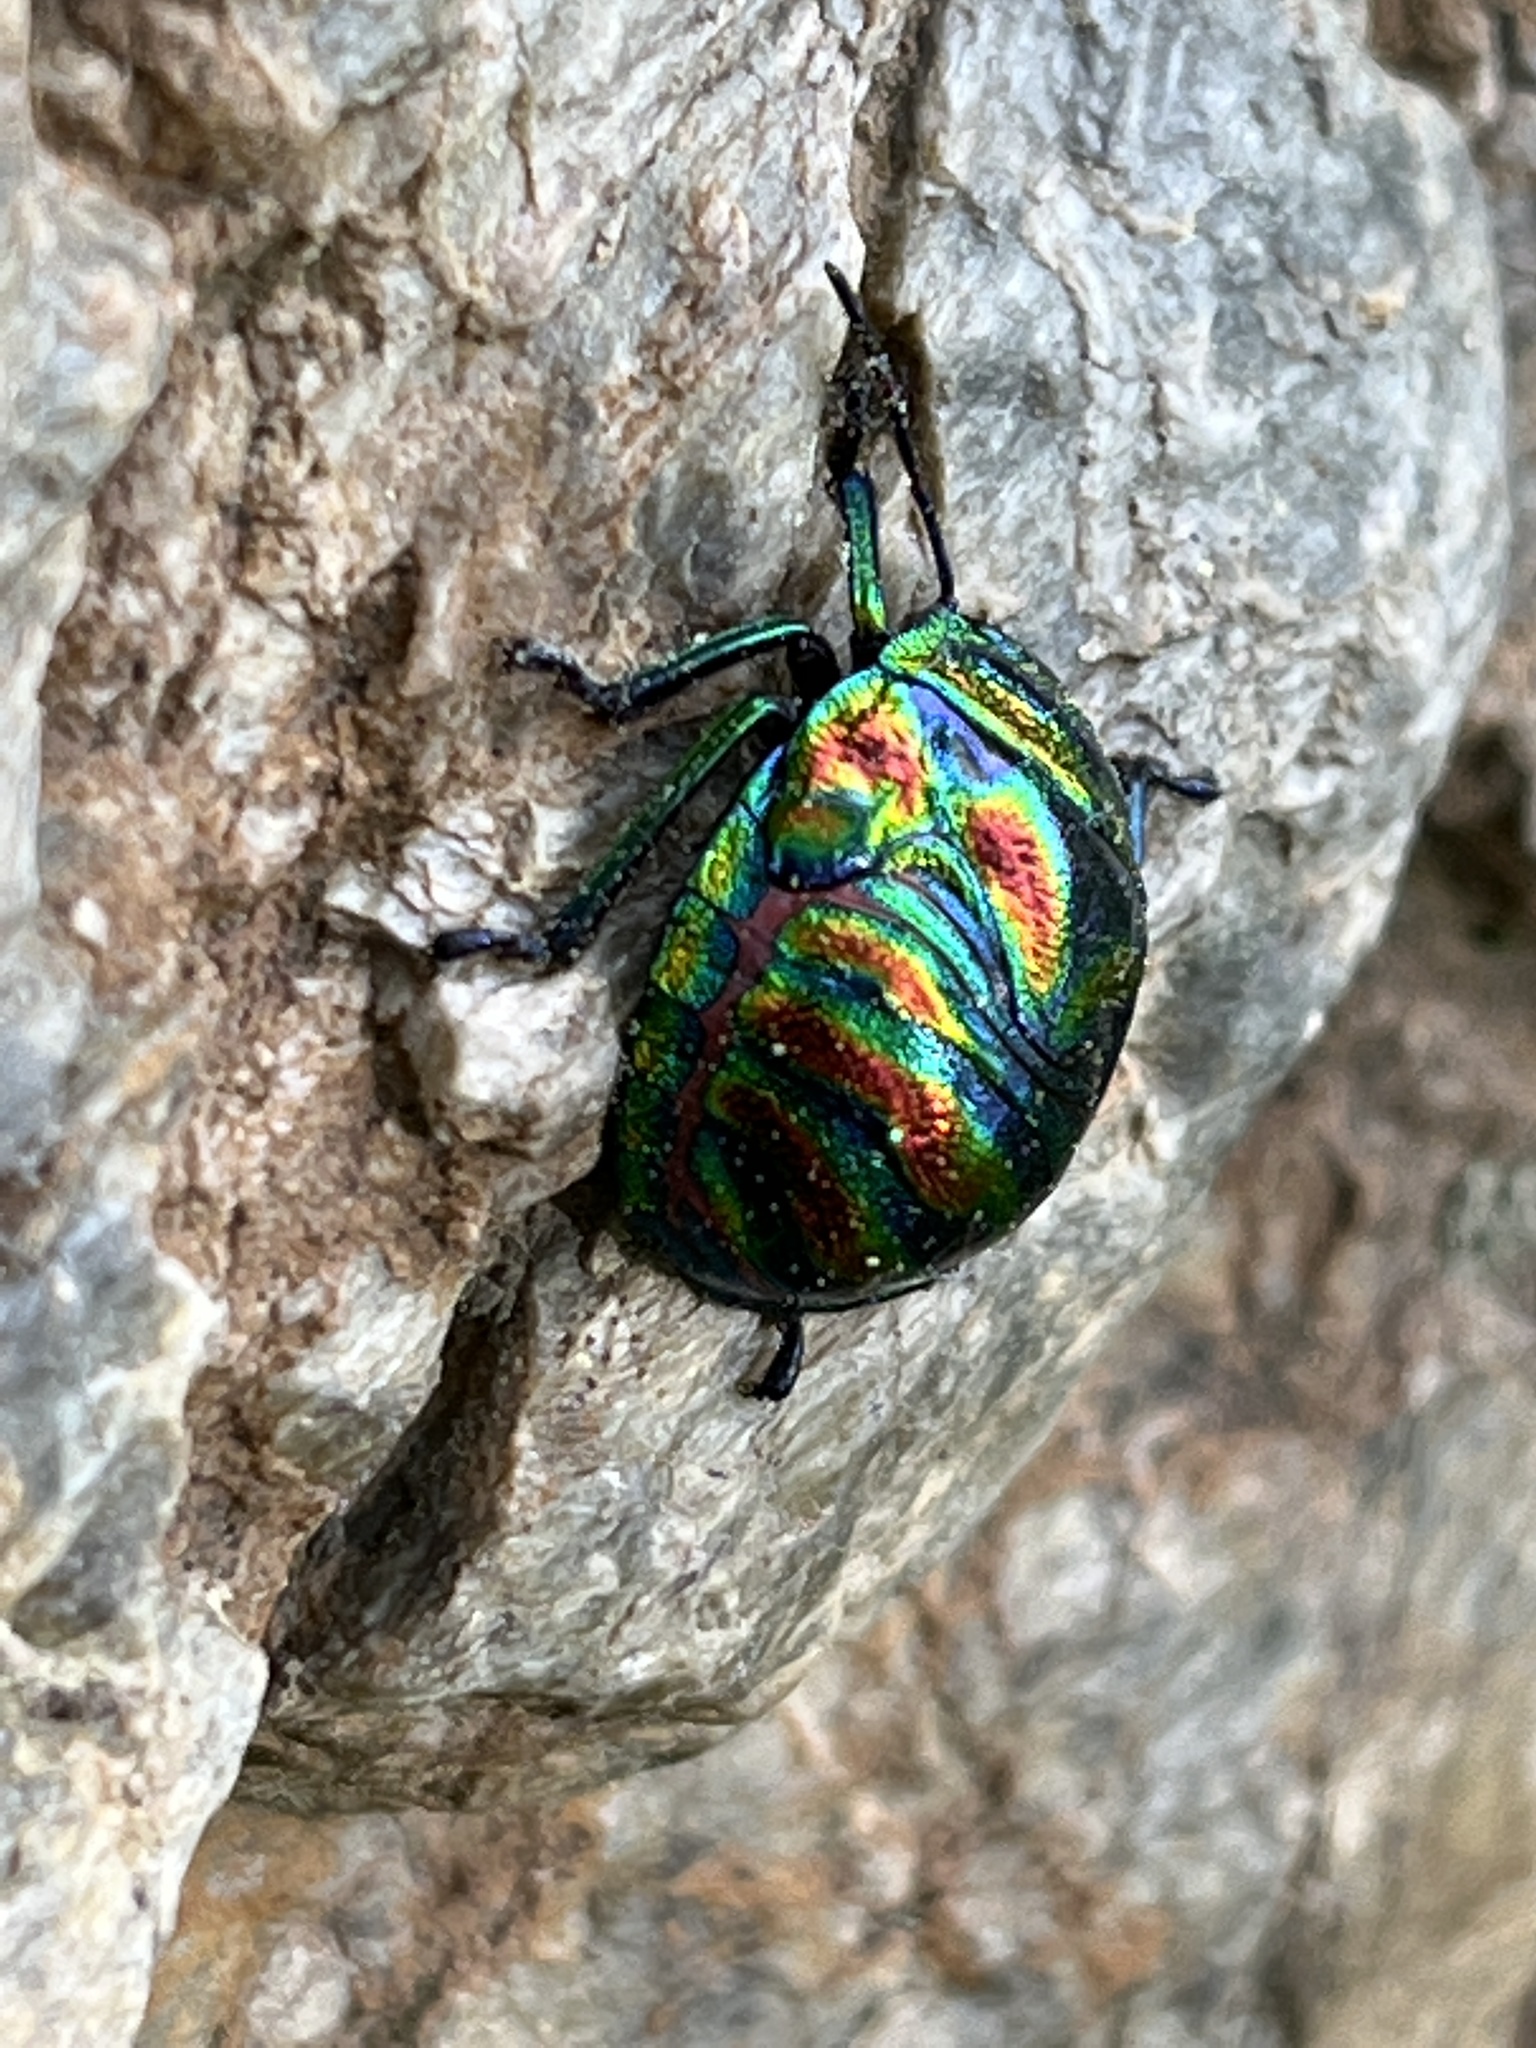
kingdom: Animalia
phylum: Arthropoda
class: Insecta
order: Hemiptera
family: Scutelleridae
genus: Poecilocoris
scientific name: Poecilocoris
